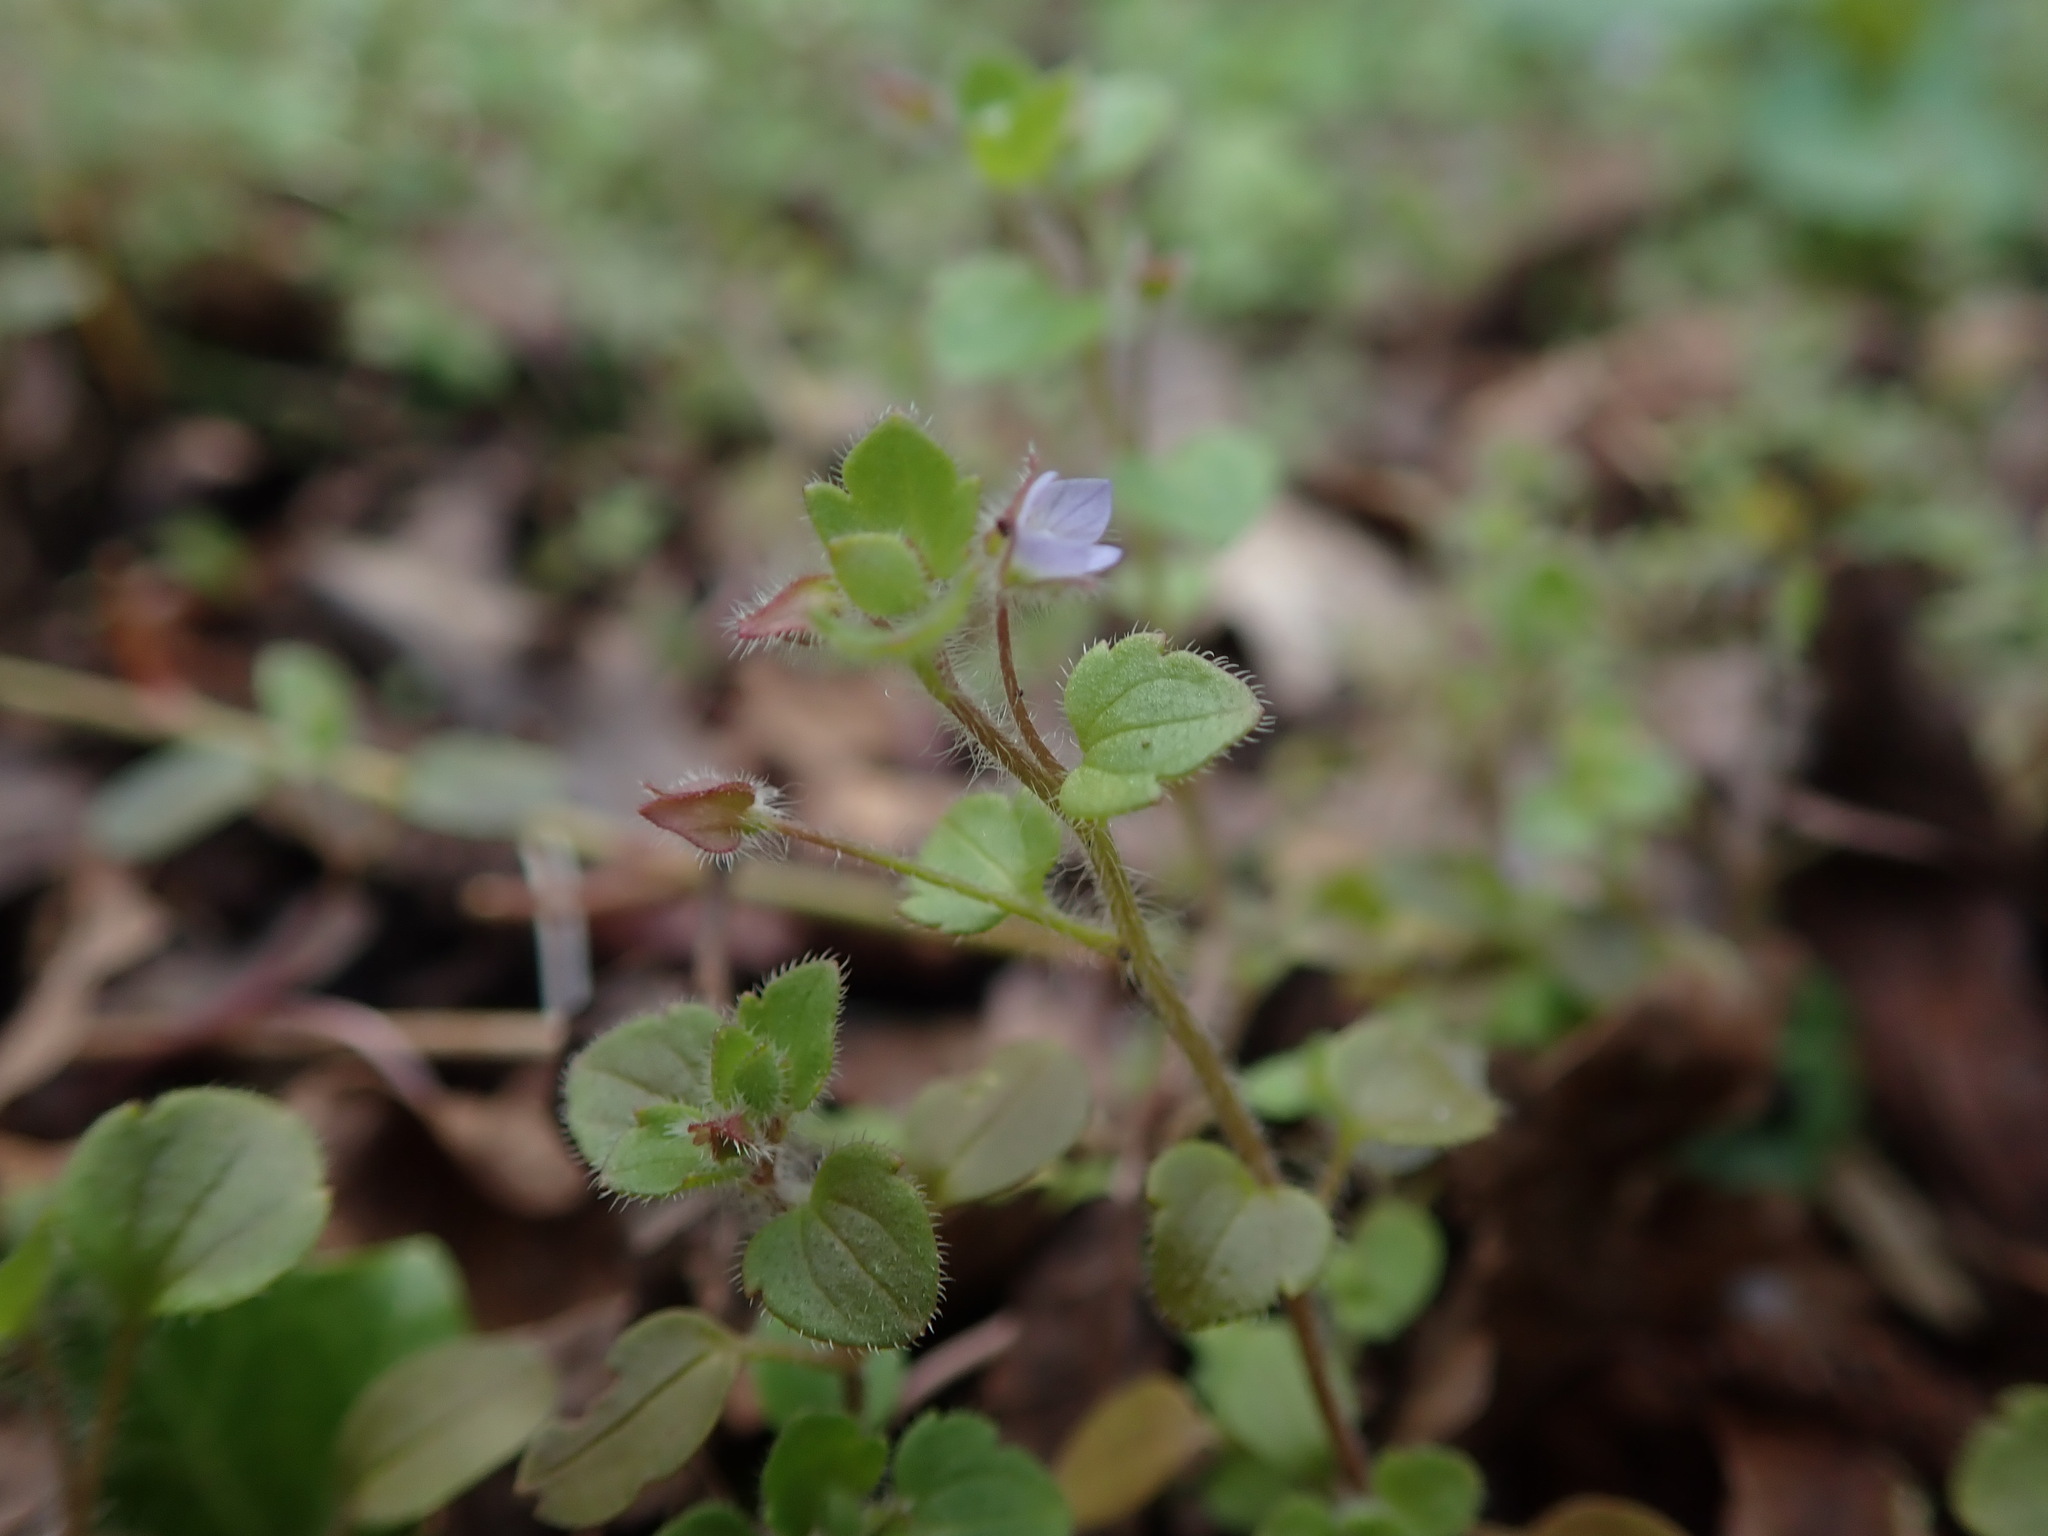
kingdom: Plantae
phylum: Tracheophyta
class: Magnoliopsida
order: Lamiales
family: Plantaginaceae
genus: Veronica
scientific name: Veronica sublobata
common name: False ivy-leaved speedwell
